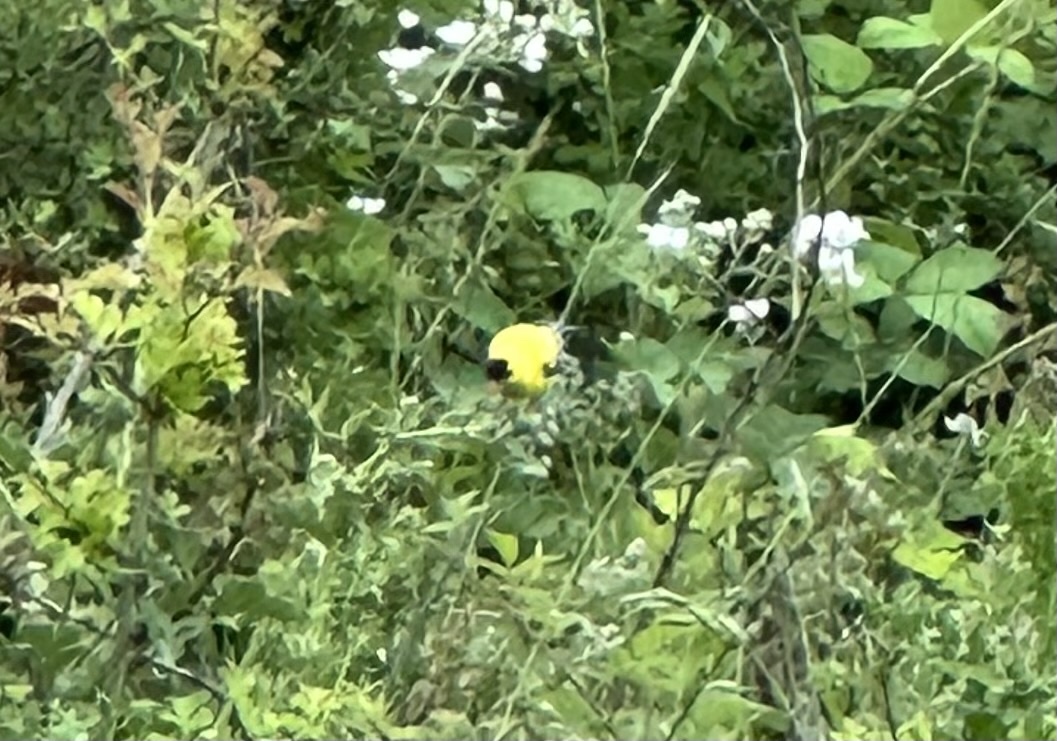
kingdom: Animalia
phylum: Chordata
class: Aves
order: Passeriformes
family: Fringillidae
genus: Spinus
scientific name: Spinus tristis
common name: American goldfinch
